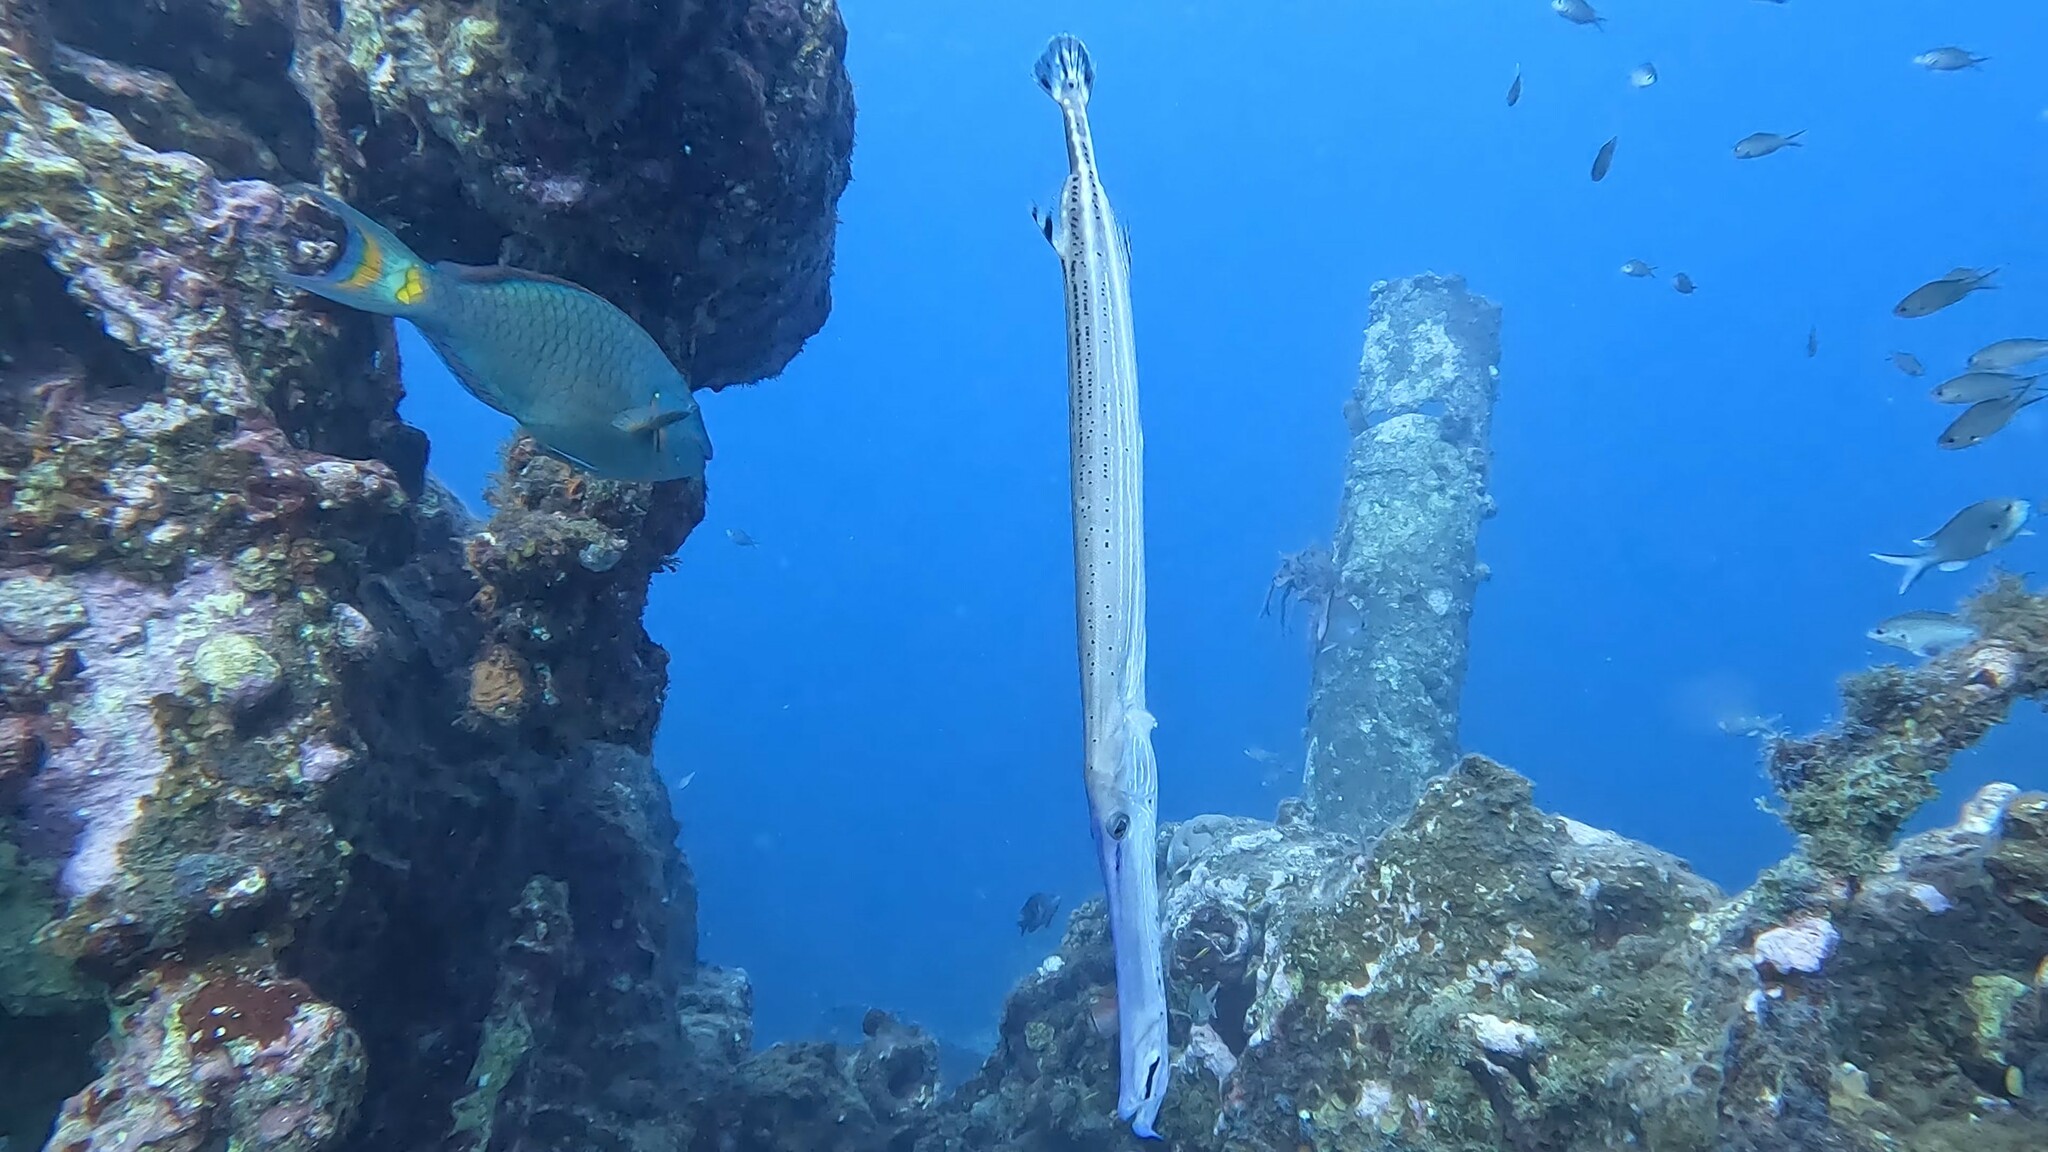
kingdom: Animalia
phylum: Chordata
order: Syngnathiformes
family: Aulostomidae
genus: Aulostomus
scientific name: Aulostomus maculatus
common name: West atlantic trumpetfish
